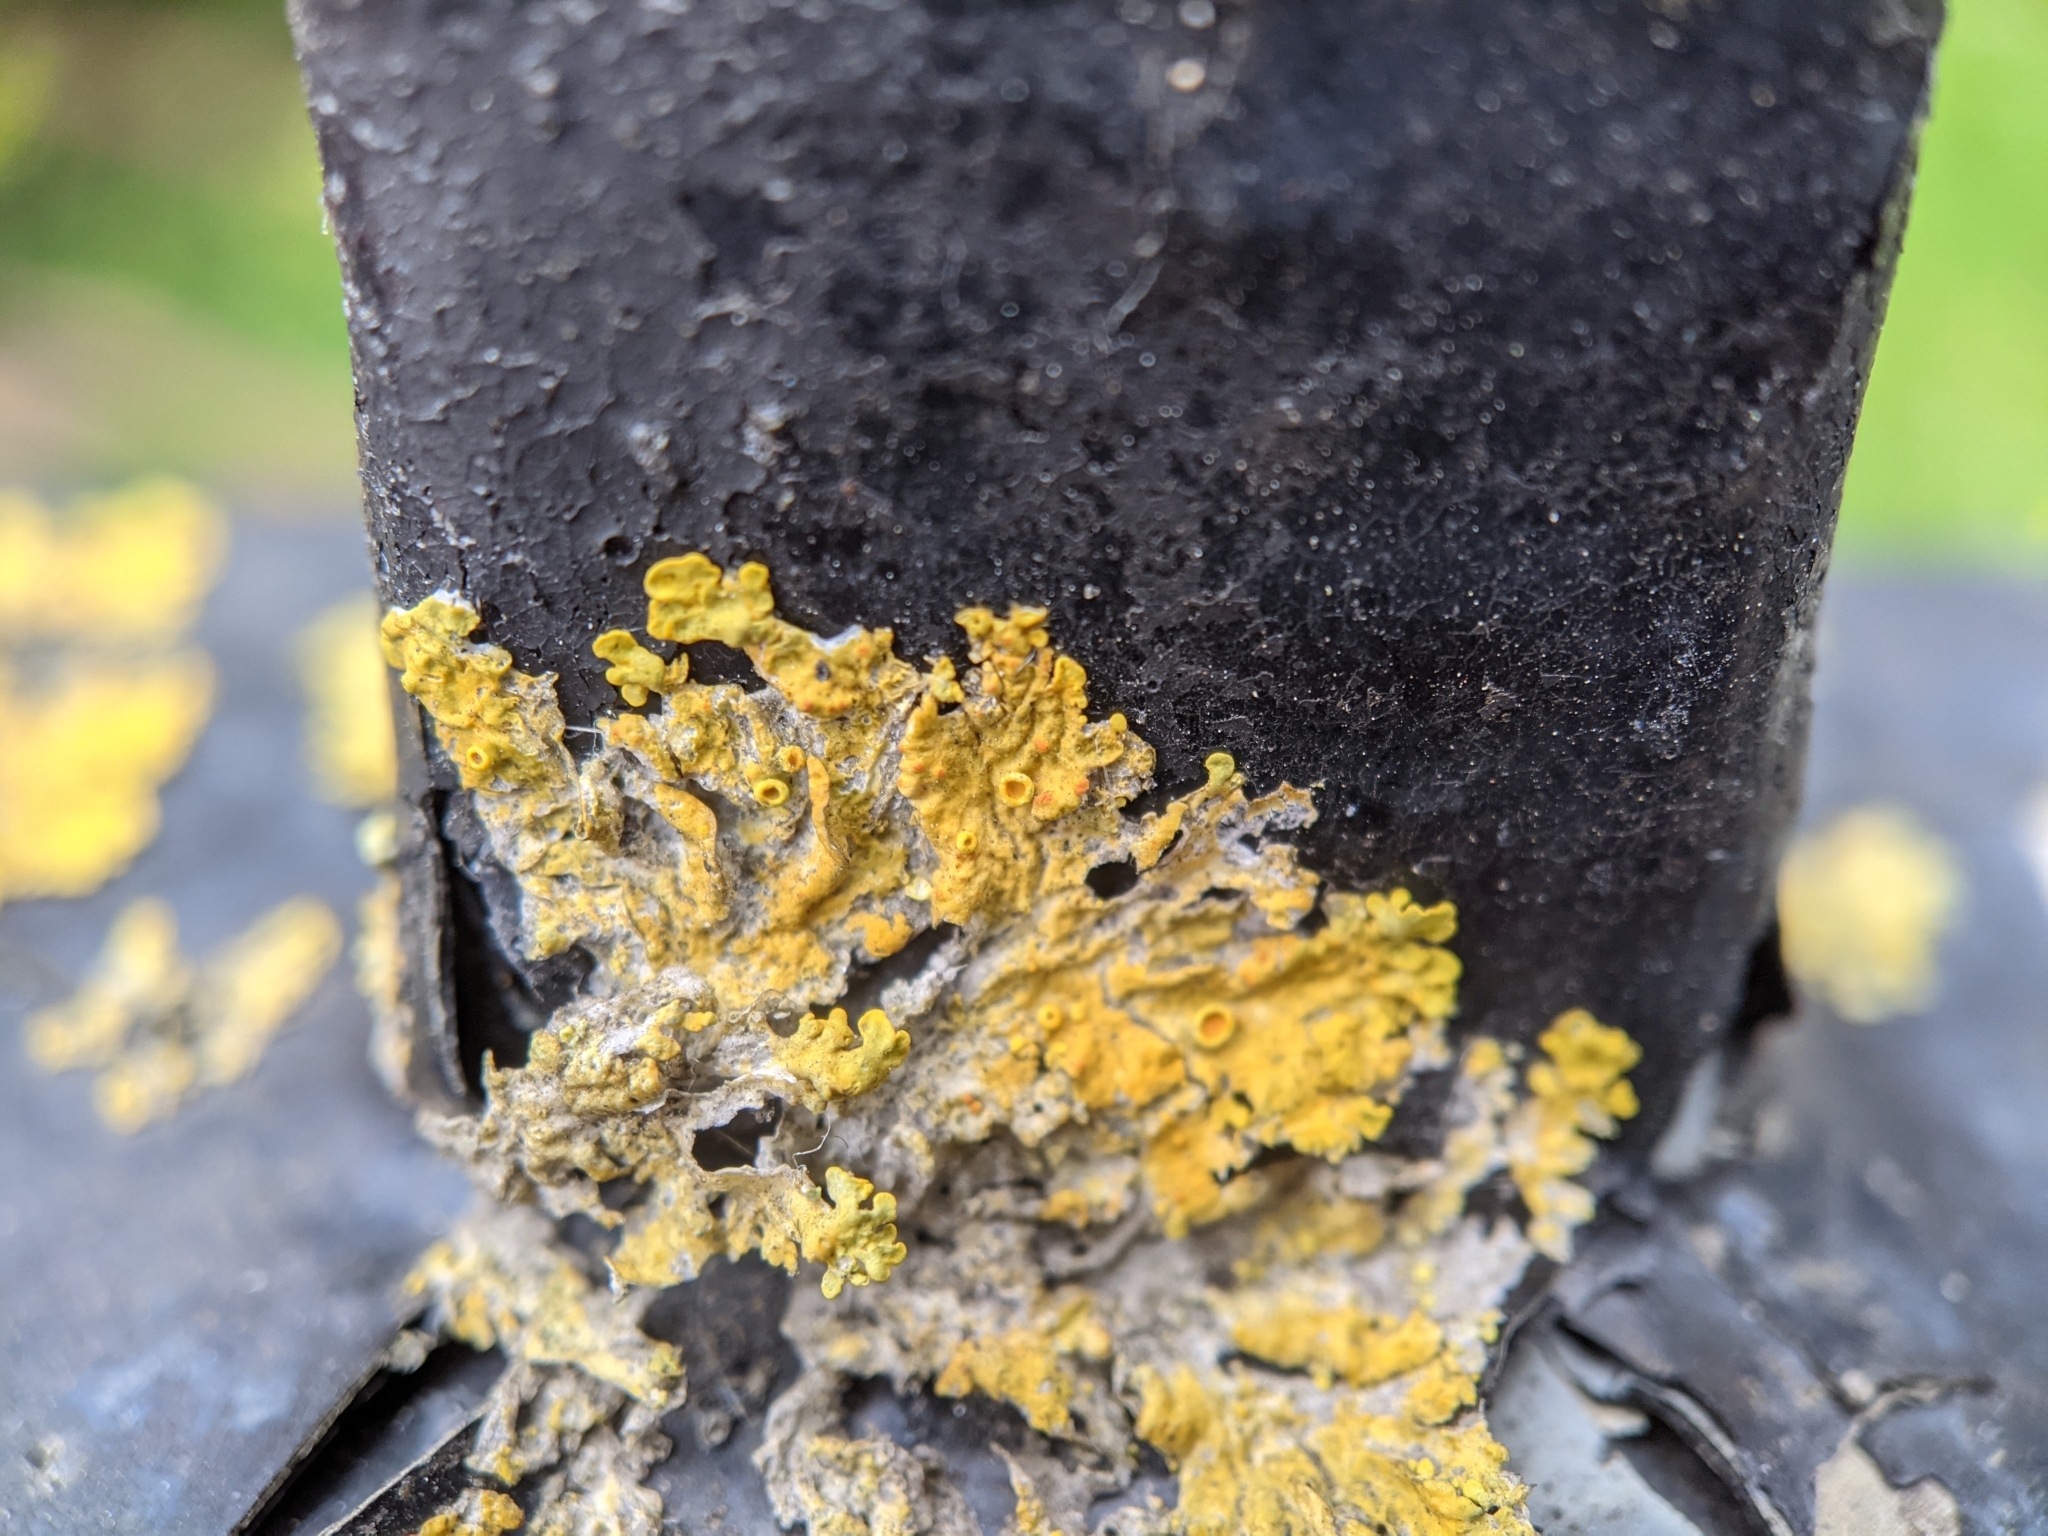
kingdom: Fungi
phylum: Ascomycota
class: Lecanoromycetes
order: Teloschistales
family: Teloschistaceae
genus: Xanthoria
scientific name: Xanthoria parietina
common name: Common orange lichen
